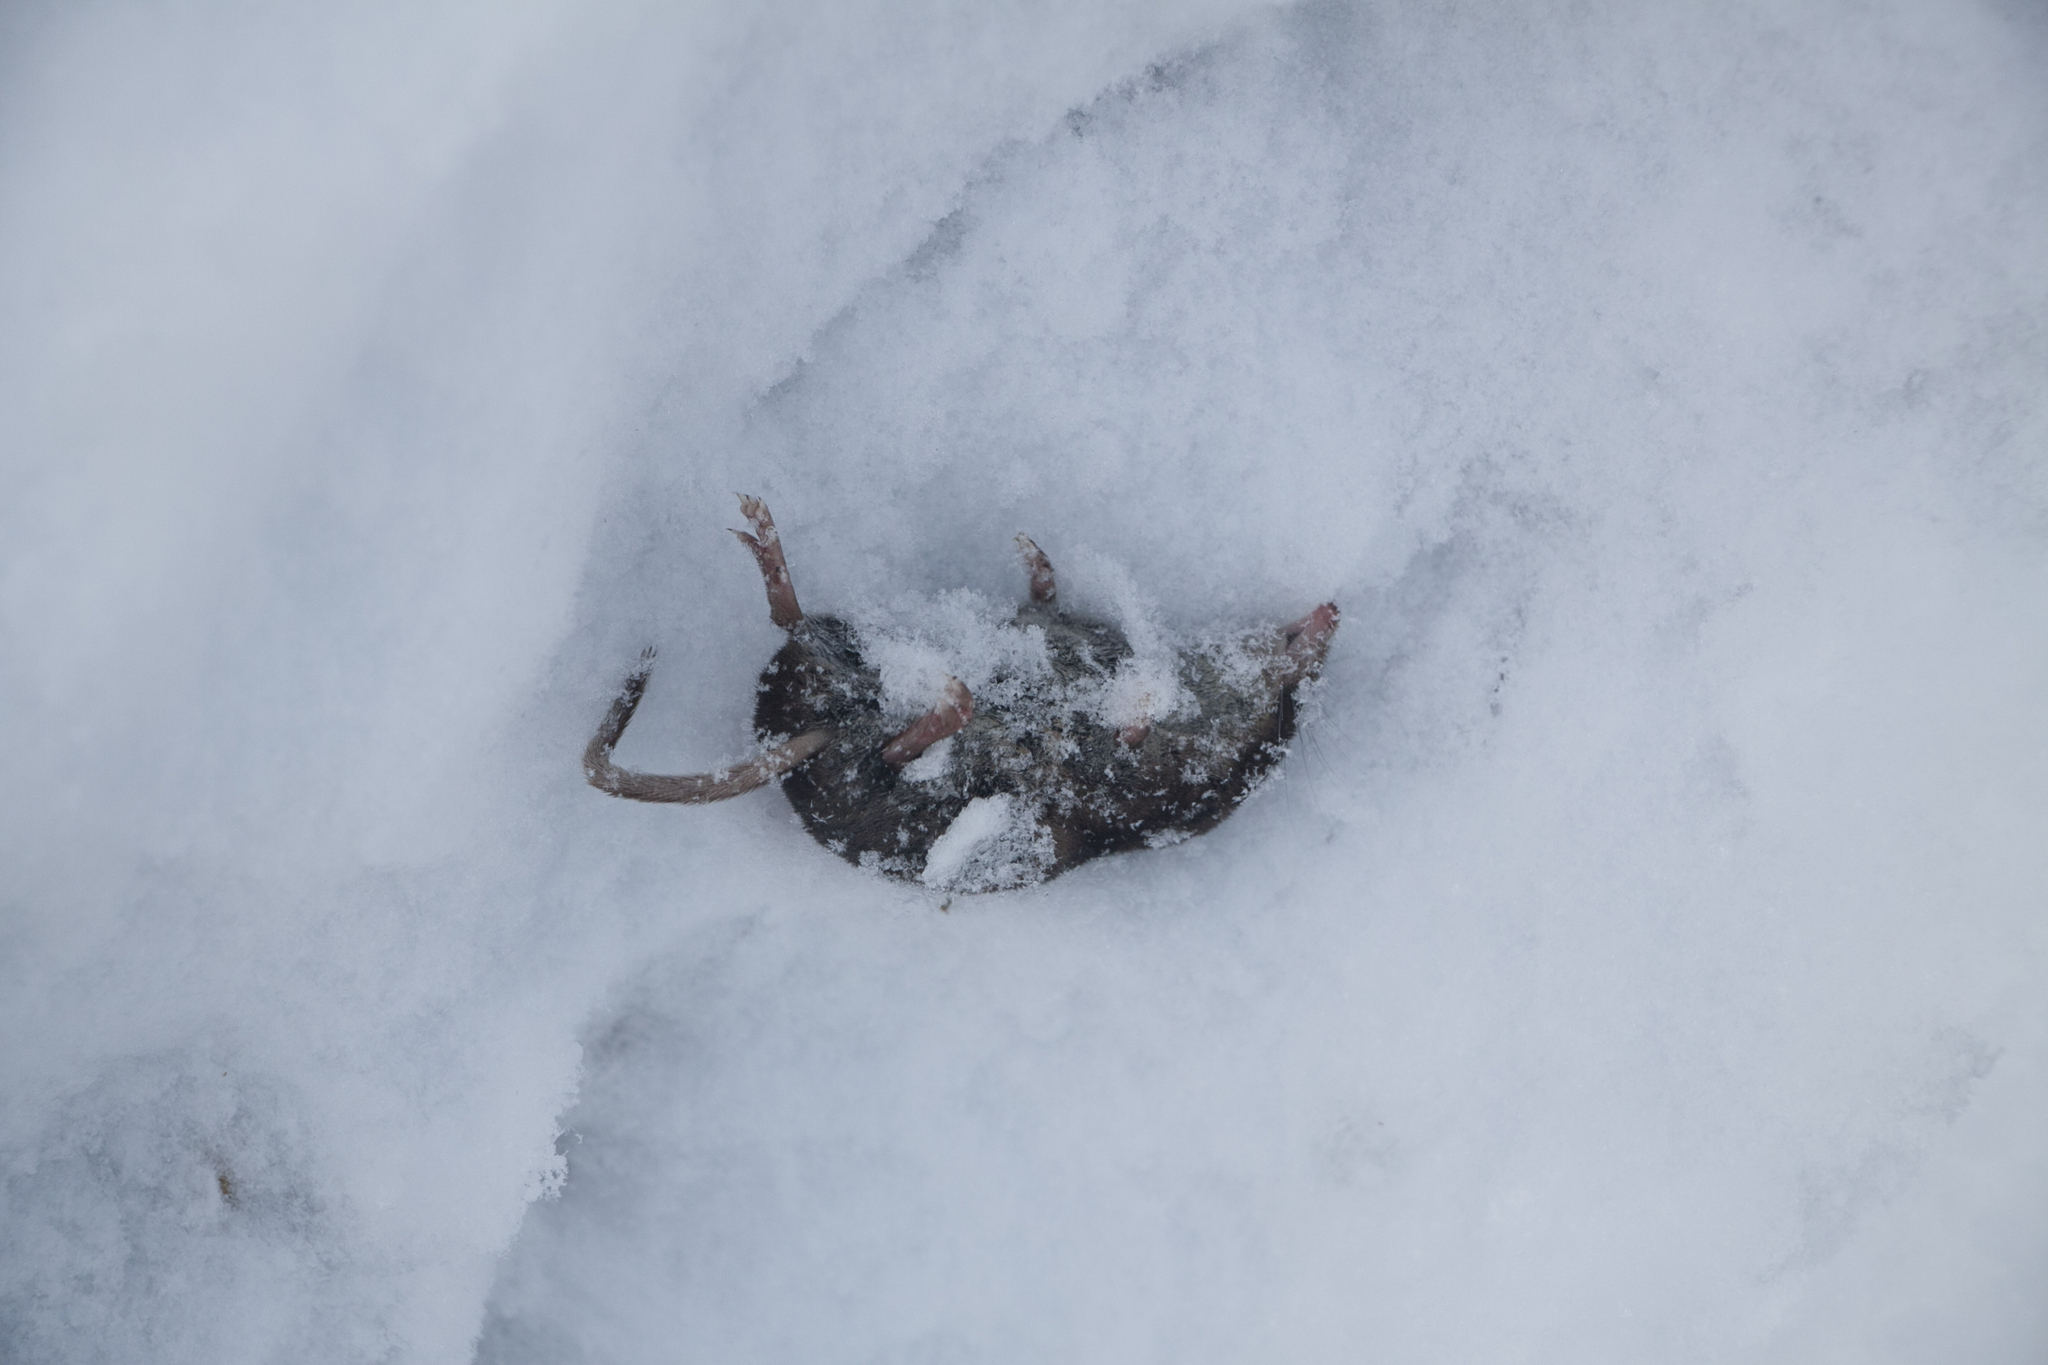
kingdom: Animalia
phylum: Chordata
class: Mammalia
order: Soricomorpha
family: Soricidae
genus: Sorex
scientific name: Sorex araneus
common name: Common shrew
